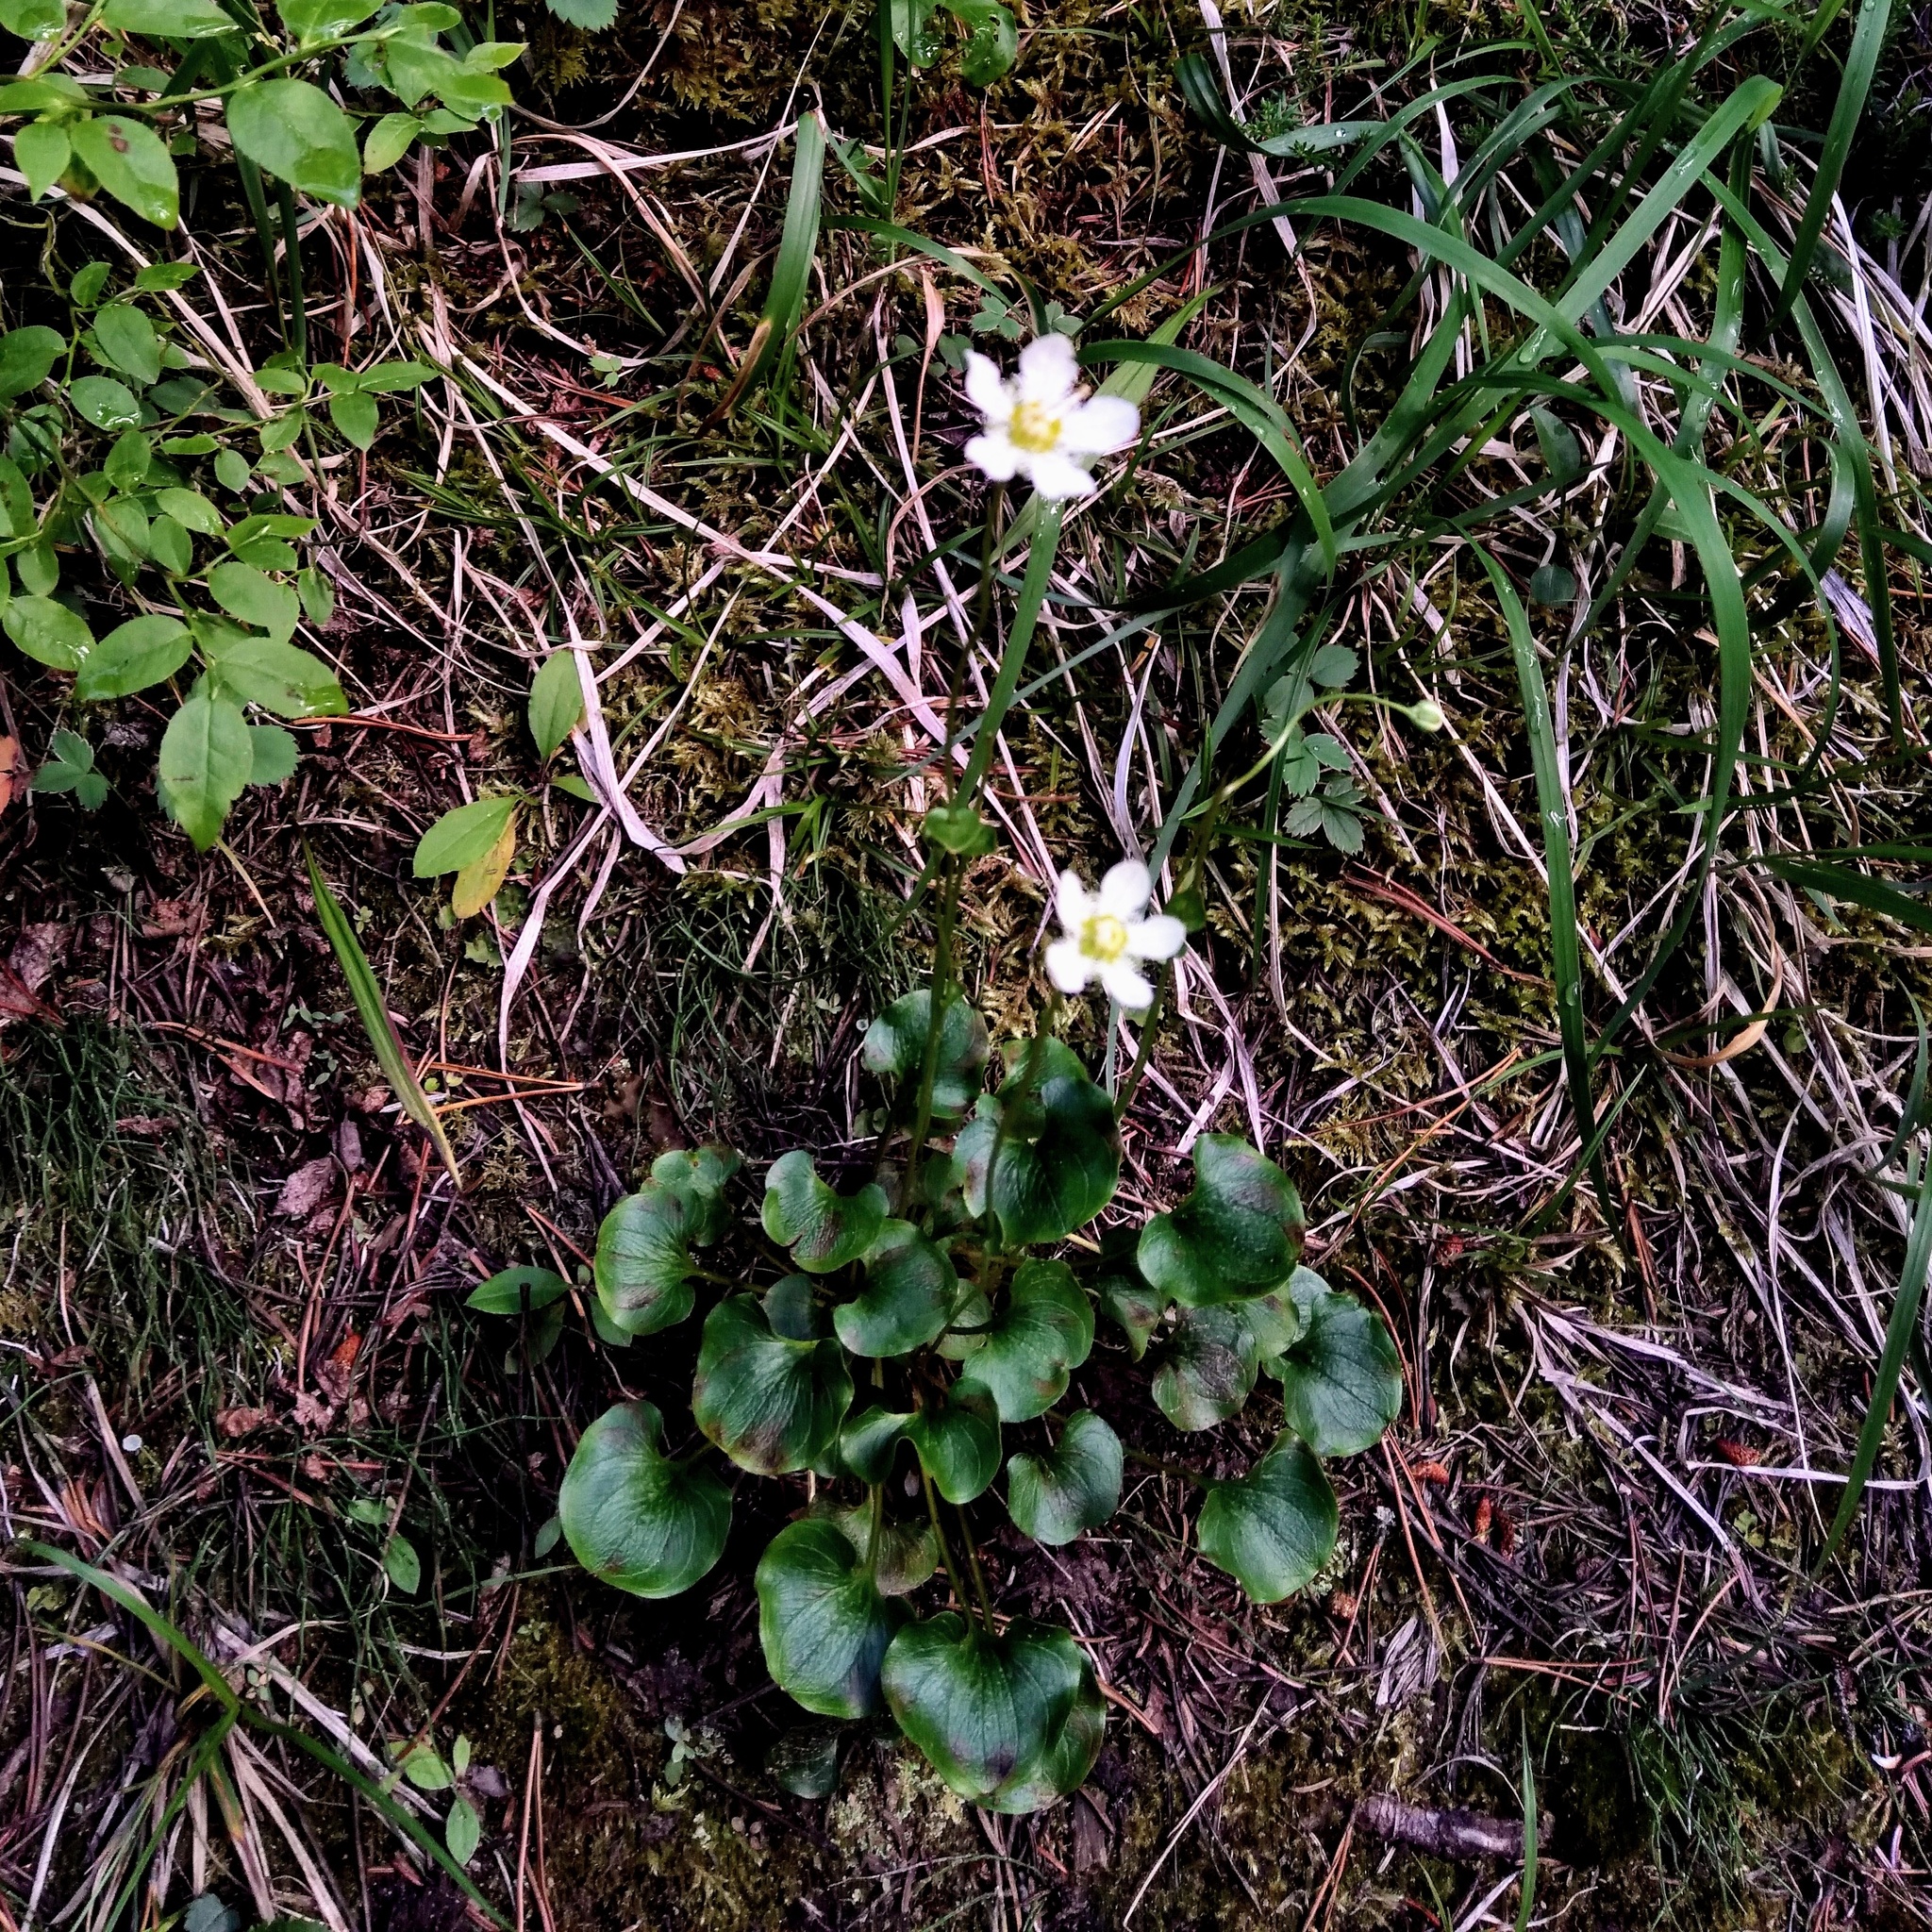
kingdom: Plantae
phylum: Tracheophyta
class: Magnoliopsida
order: Celastrales
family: Parnassiaceae
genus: Parnassia
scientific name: Parnassia fimbriata
